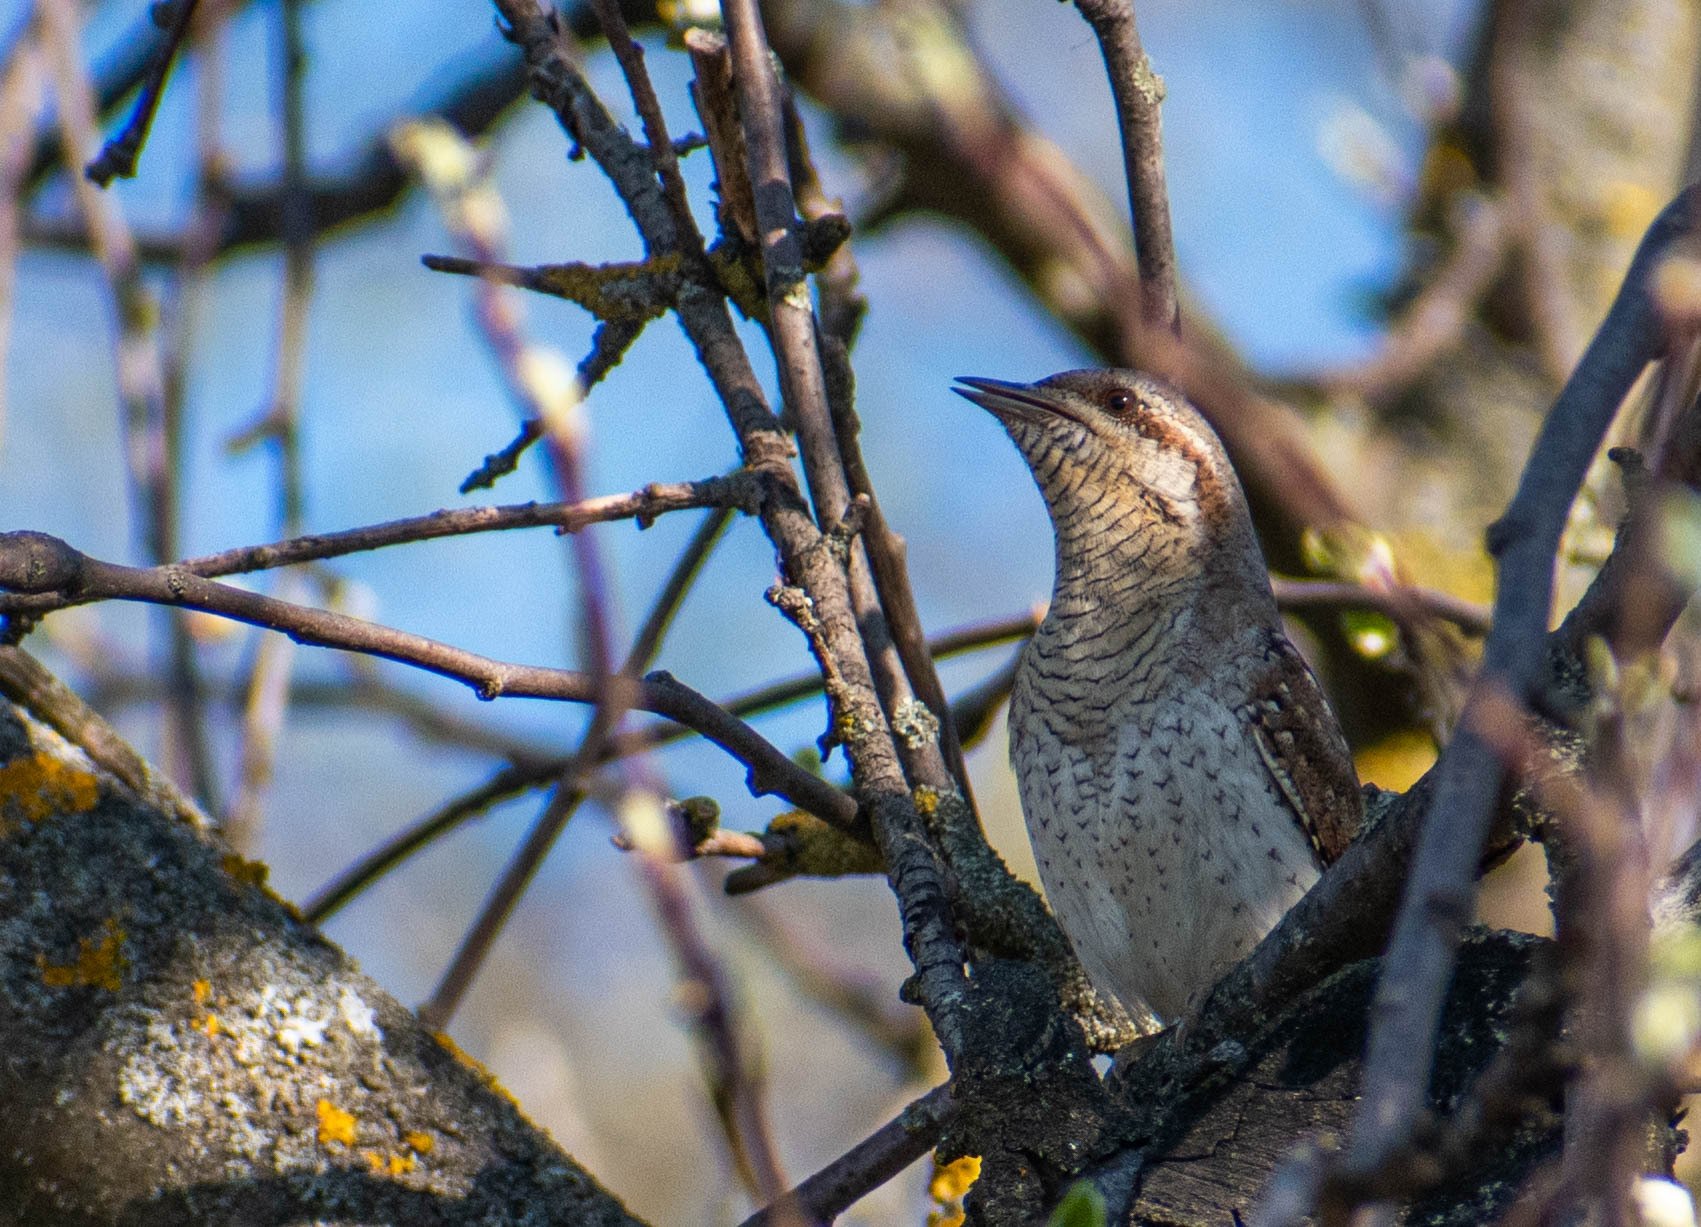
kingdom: Animalia
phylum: Chordata
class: Aves
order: Piciformes
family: Picidae
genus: Jynx
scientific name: Jynx torquilla
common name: Eurasian wryneck
